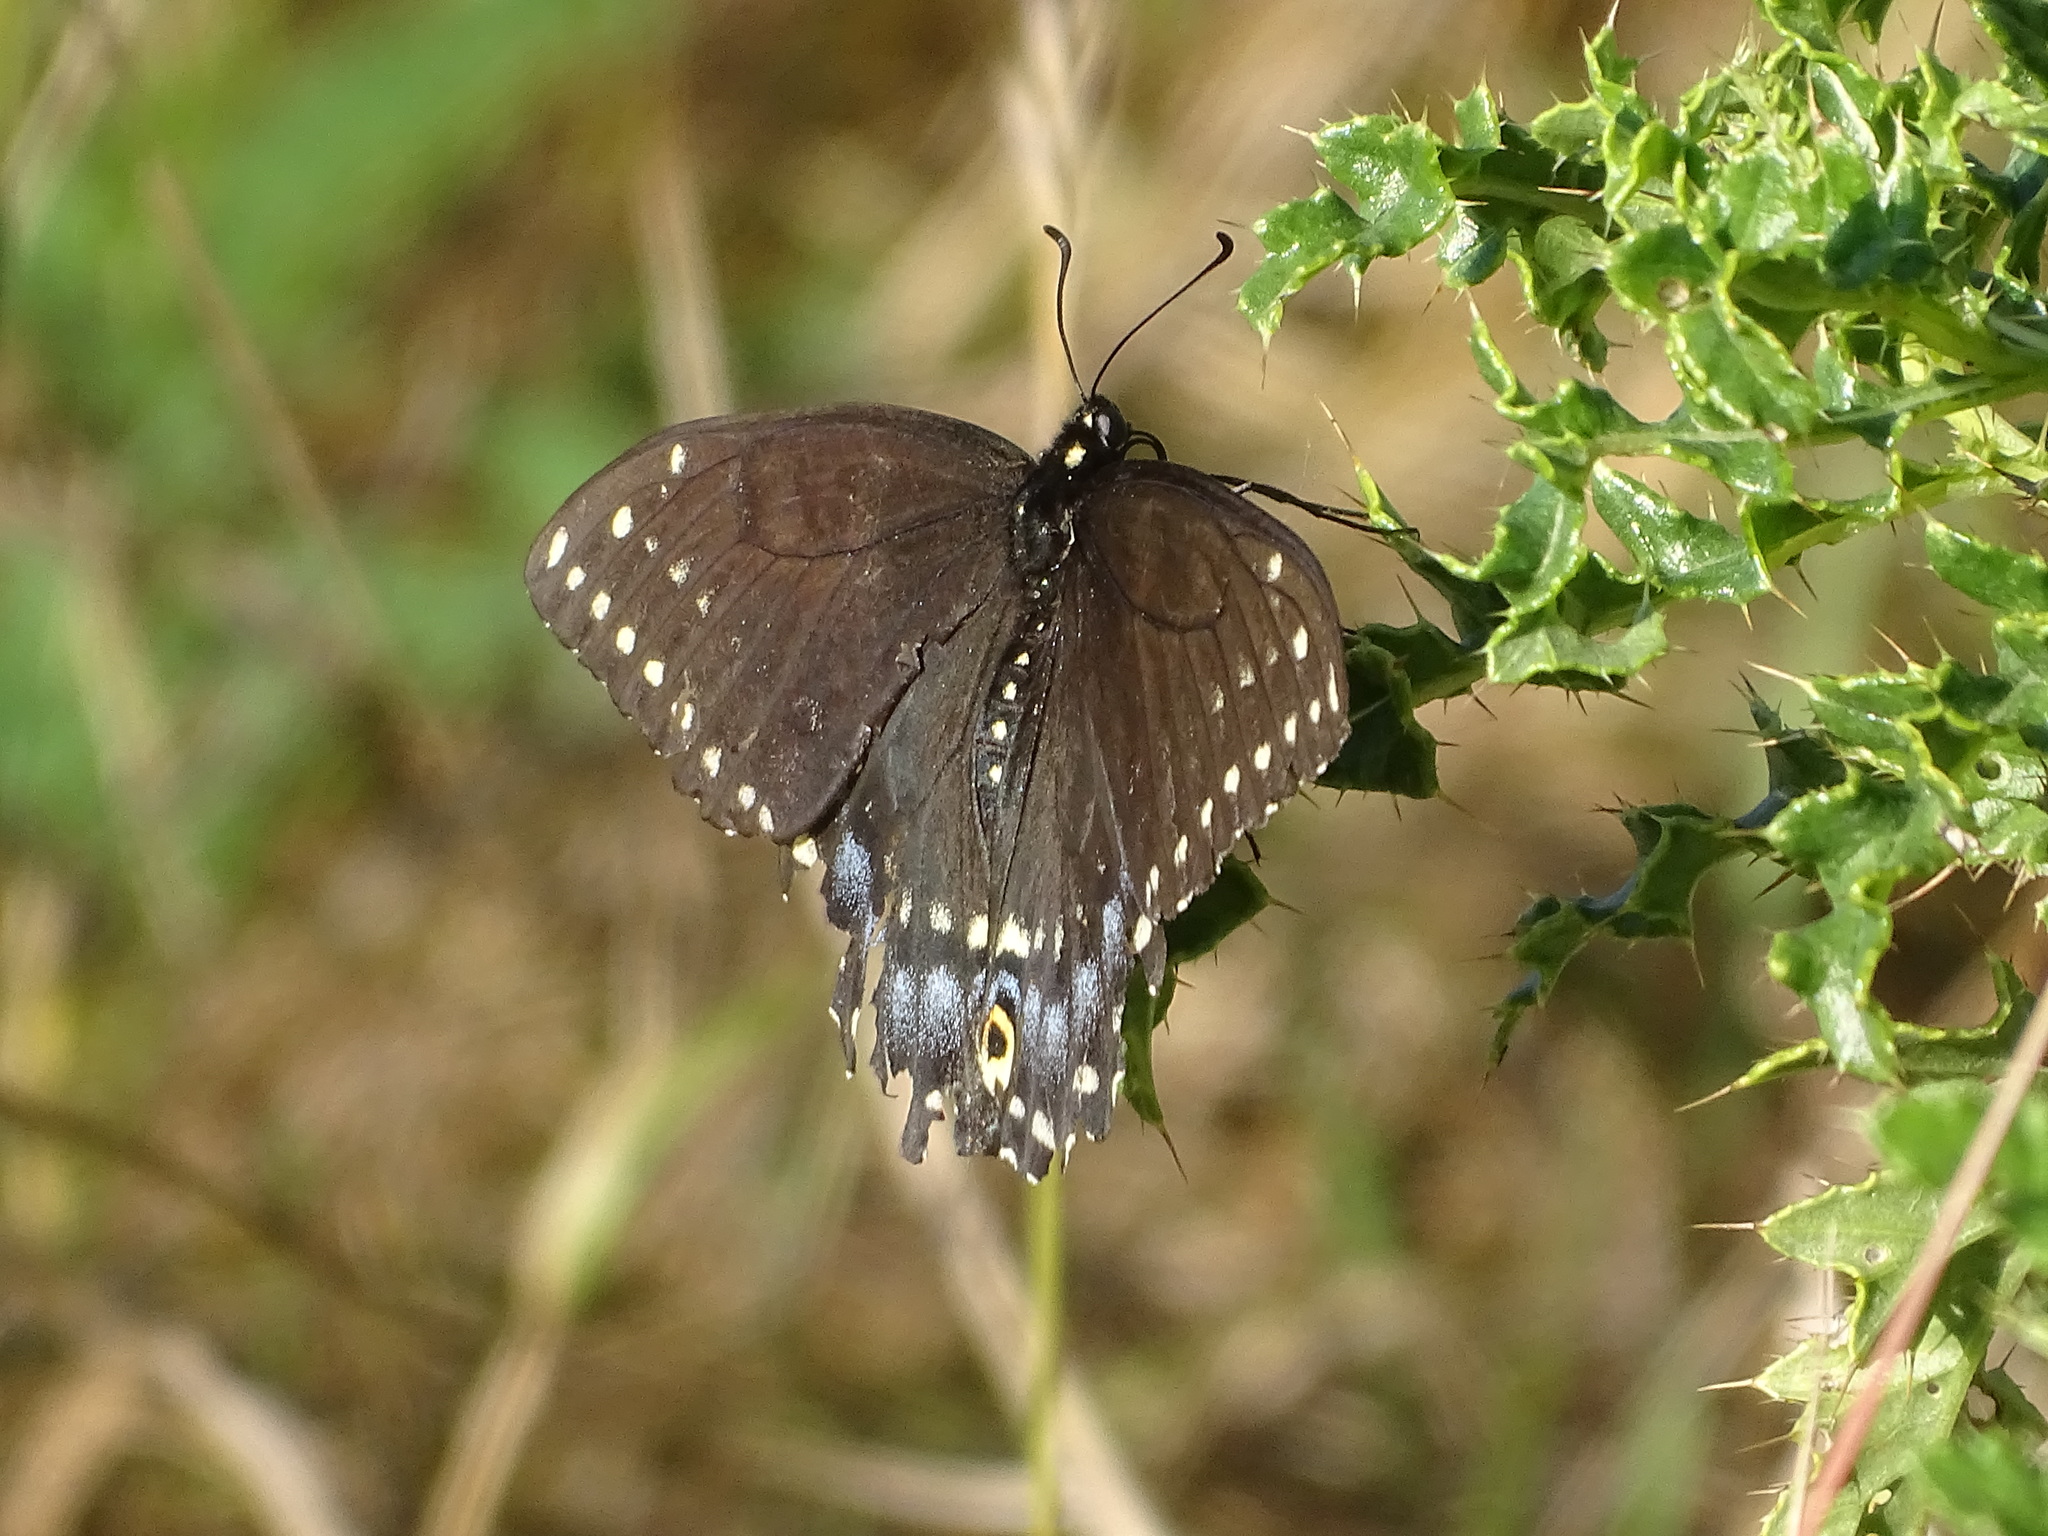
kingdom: Animalia
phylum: Arthropoda
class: Insecta
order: Lepidoptera
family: Papilionidae
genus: Papilio
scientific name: Papilio polyxenes
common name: Black swallowtail
